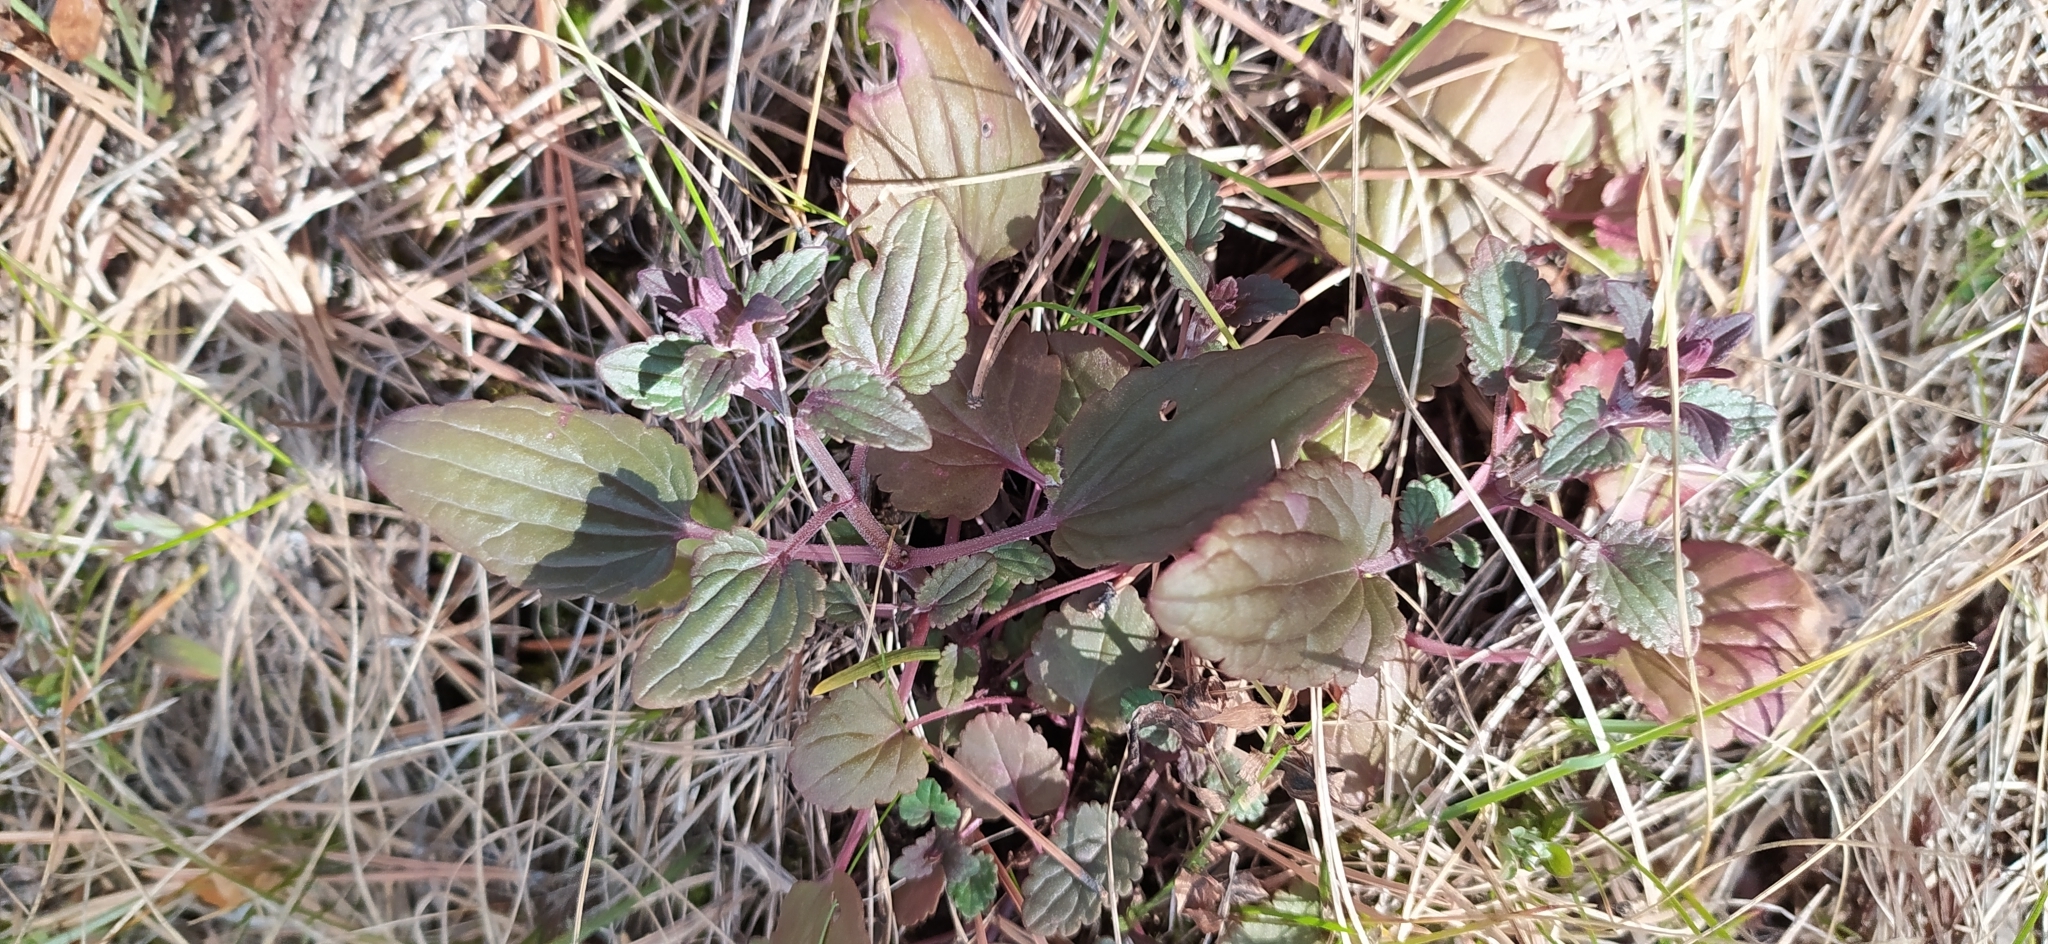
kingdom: Plantae
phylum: Tracheophyta
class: Magnoliopsida
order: Lamiales
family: Lamiaceae
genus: Dracocephalum
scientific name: Dracocephalum thymiflorum
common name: Thymeleaf dragonhead
